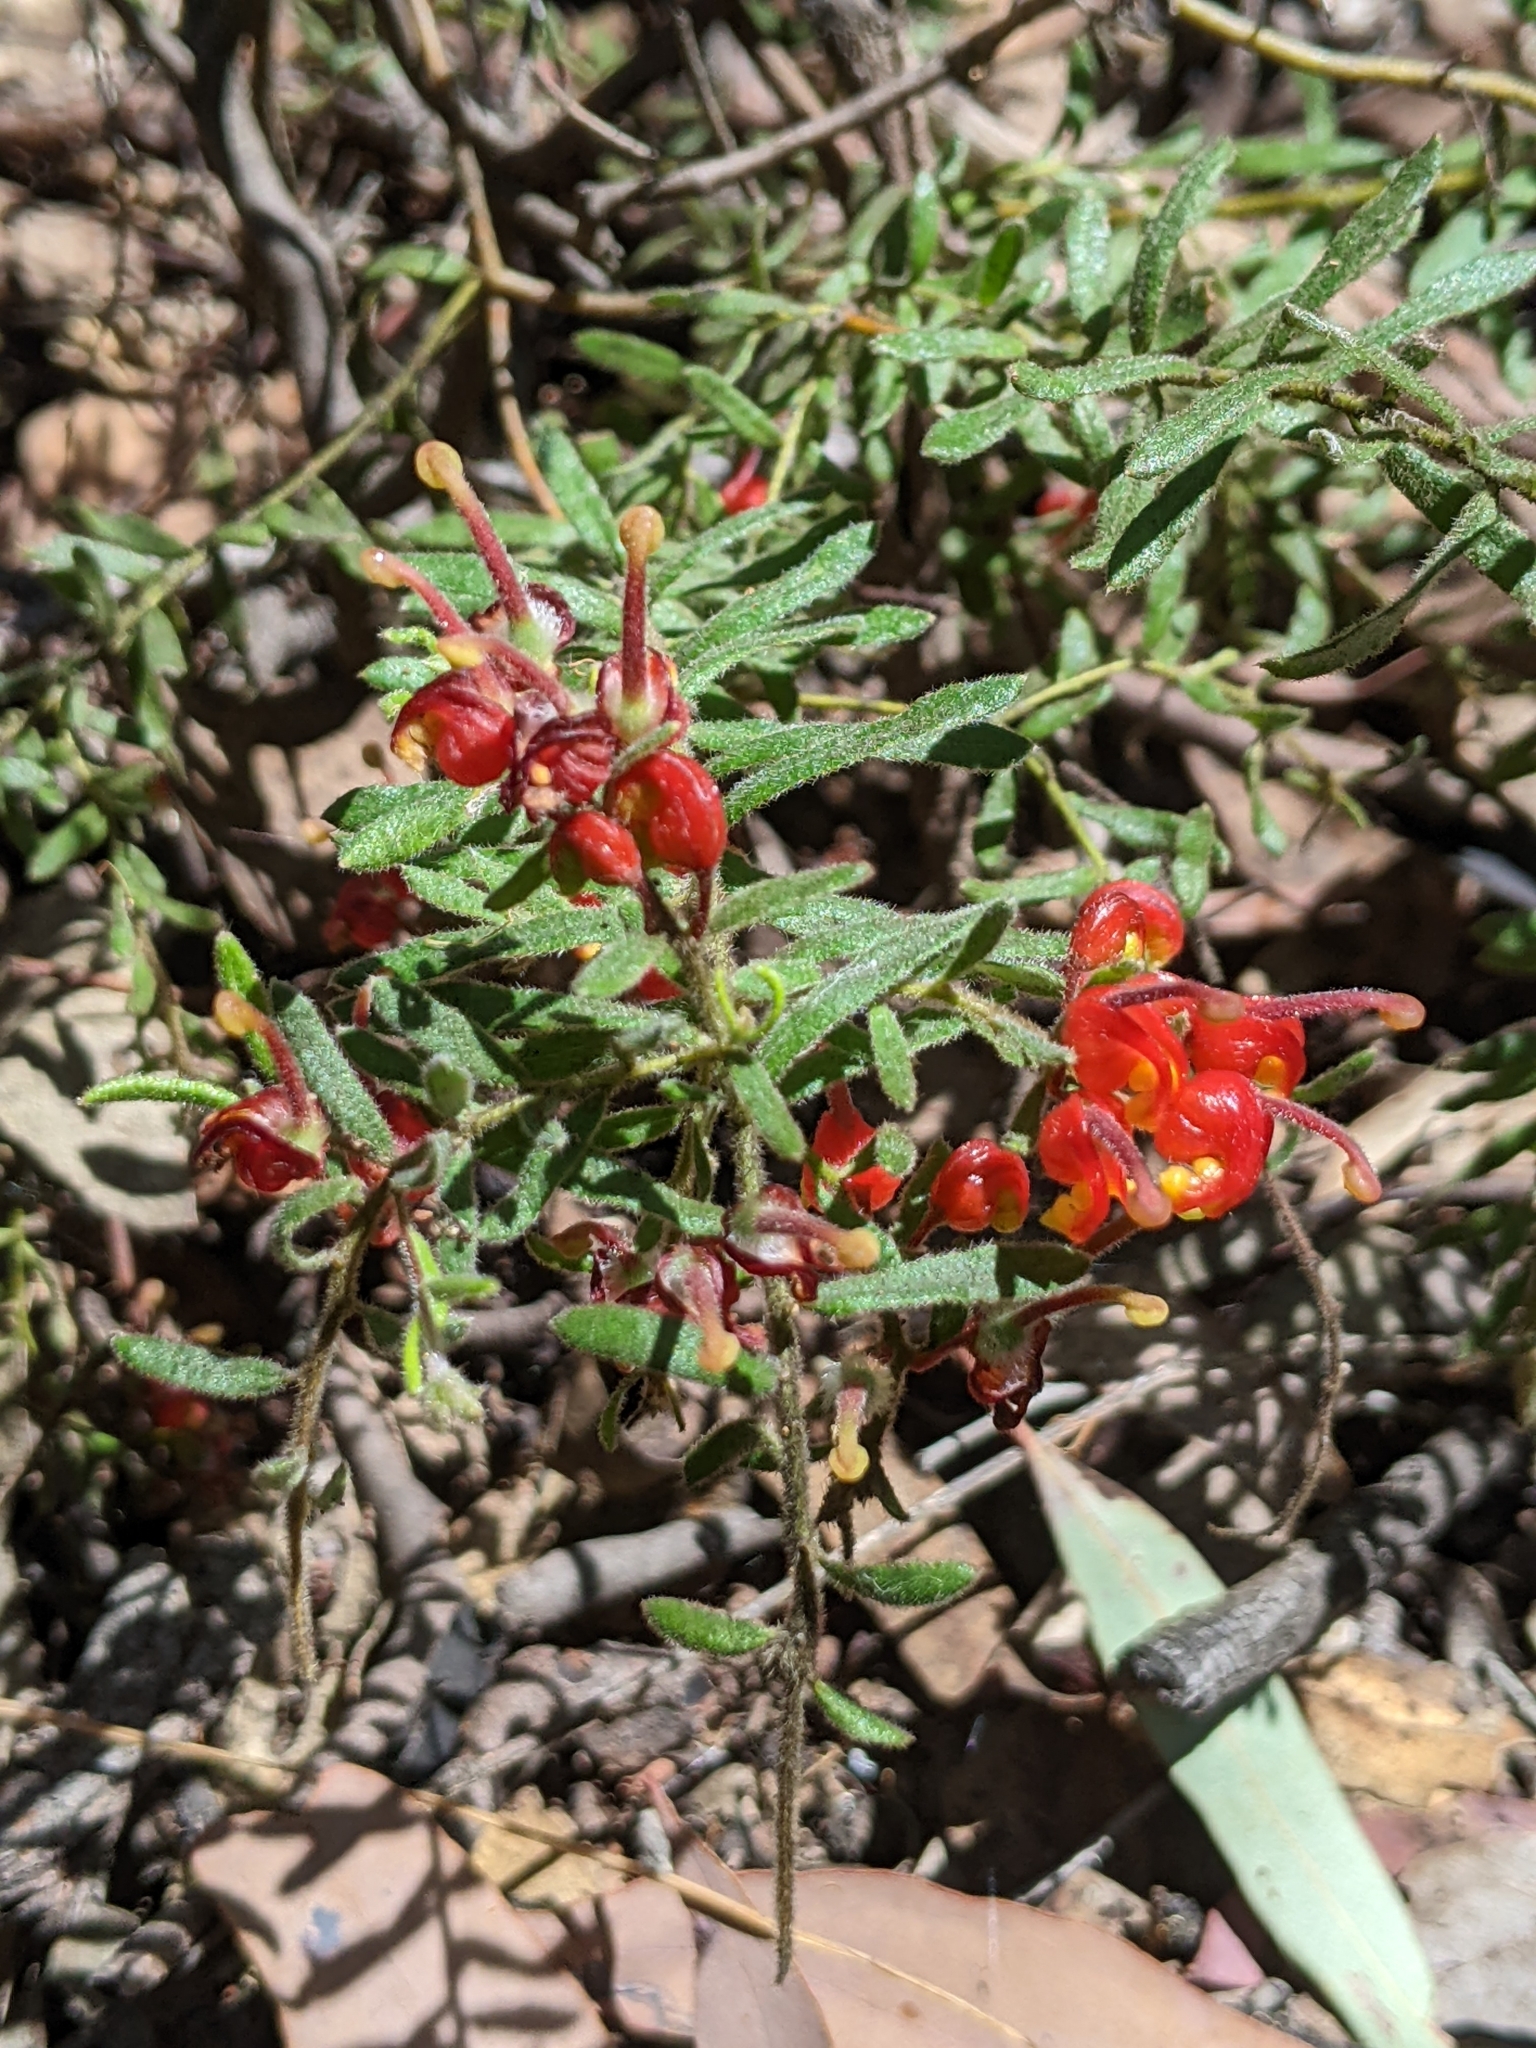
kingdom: Plantae
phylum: Tracheophyta
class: Magnoliopsida
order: Proteales
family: Proteaceae
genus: Grevillea
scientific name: Grevillea alpina
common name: Catclaws grevillea
